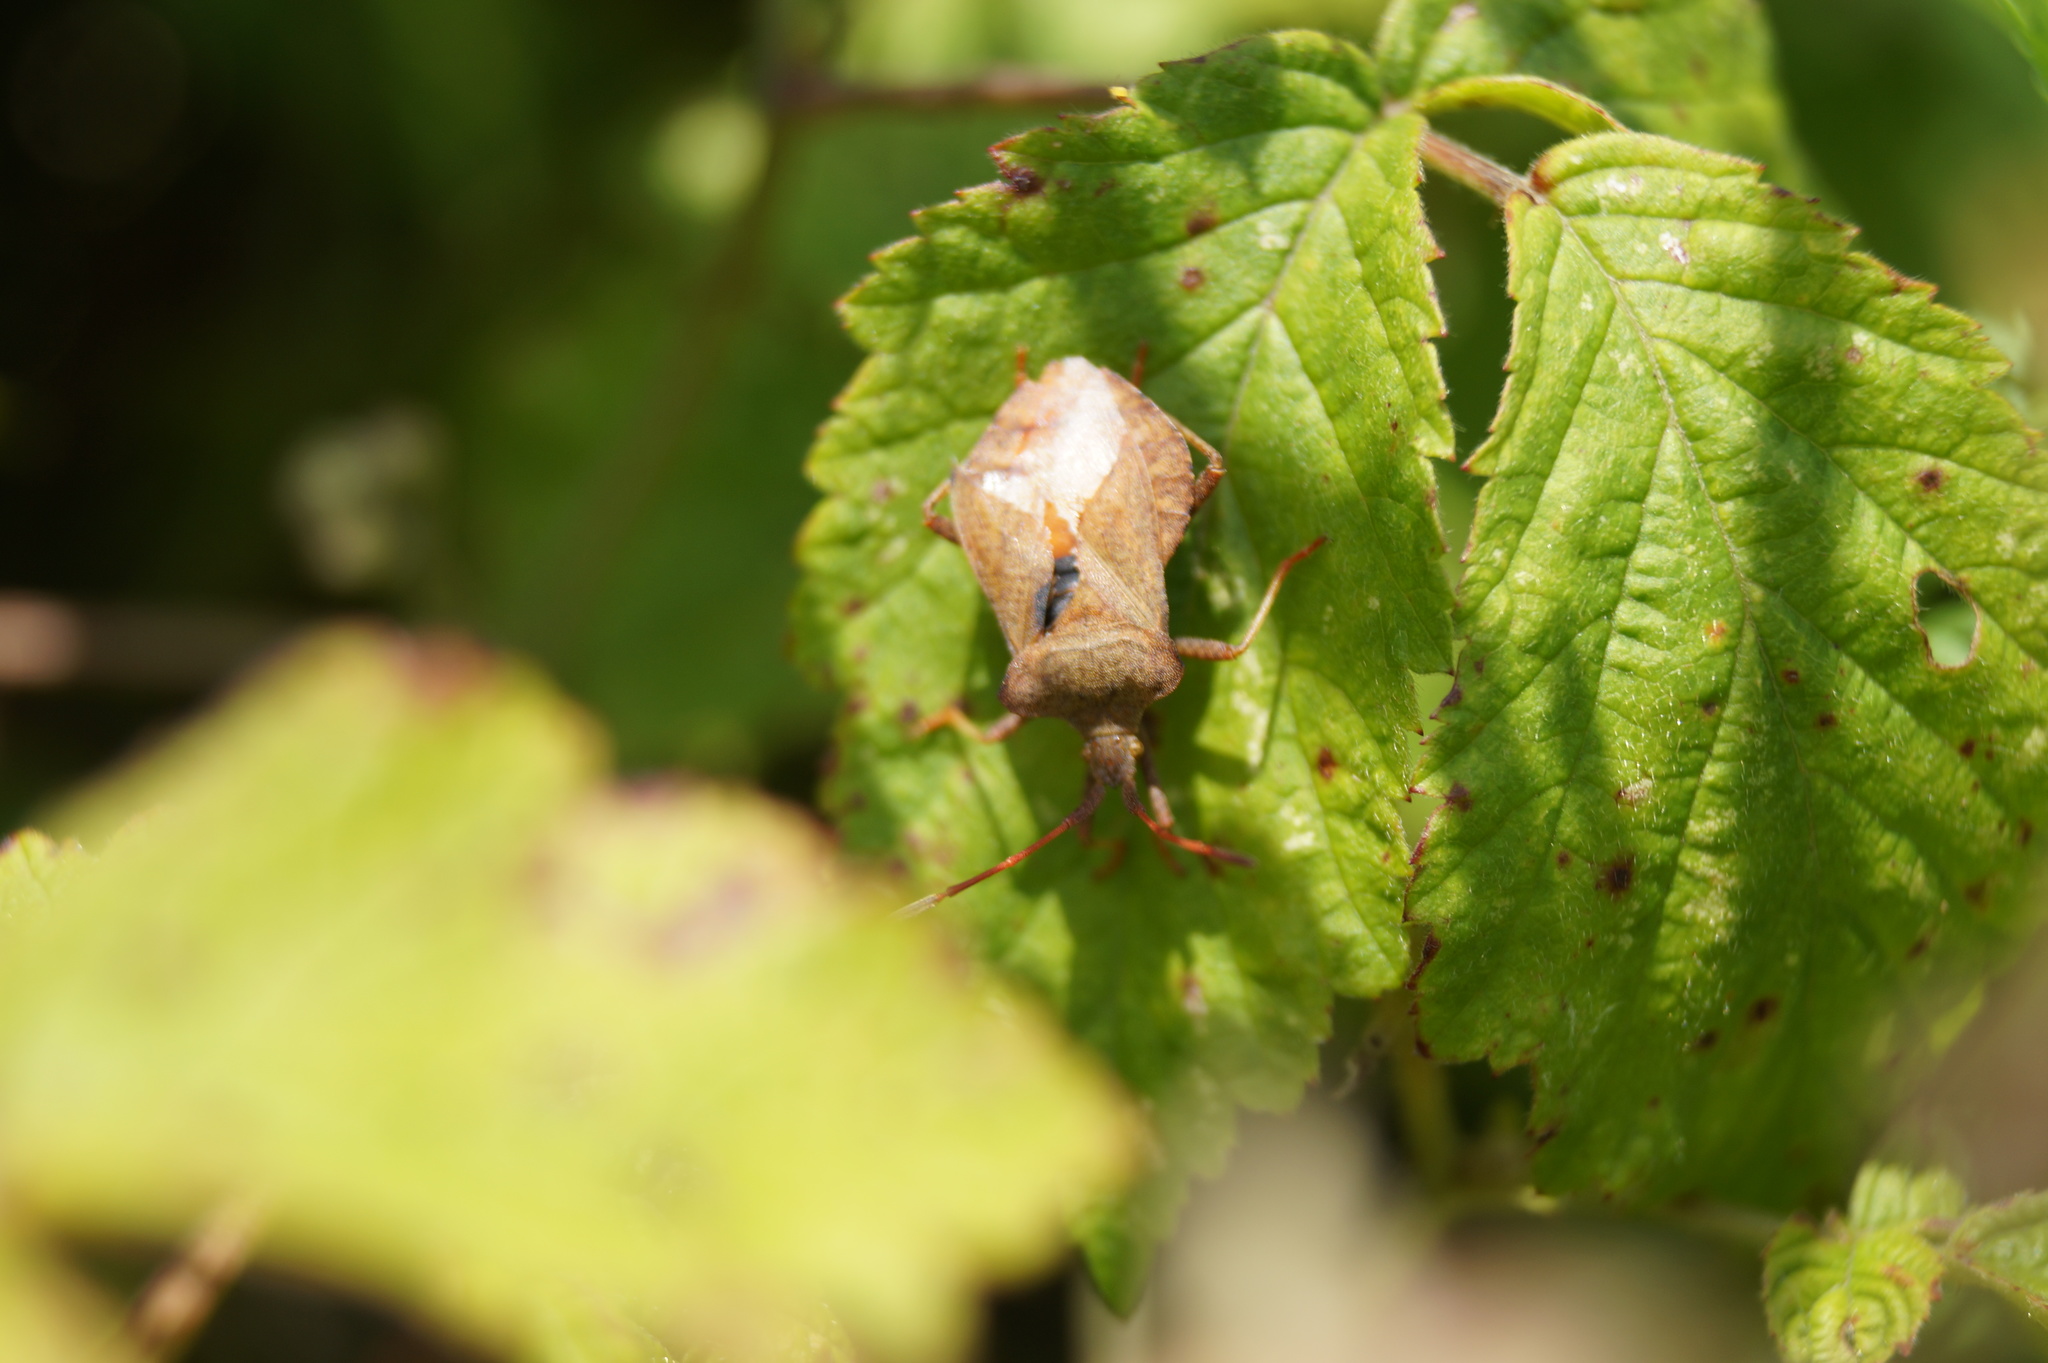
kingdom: Animalia
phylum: Arthropoda
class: Insecta
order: Hemiptera
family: Coreidae
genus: Coreus
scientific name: Coreus marginatus
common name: Dock bug
